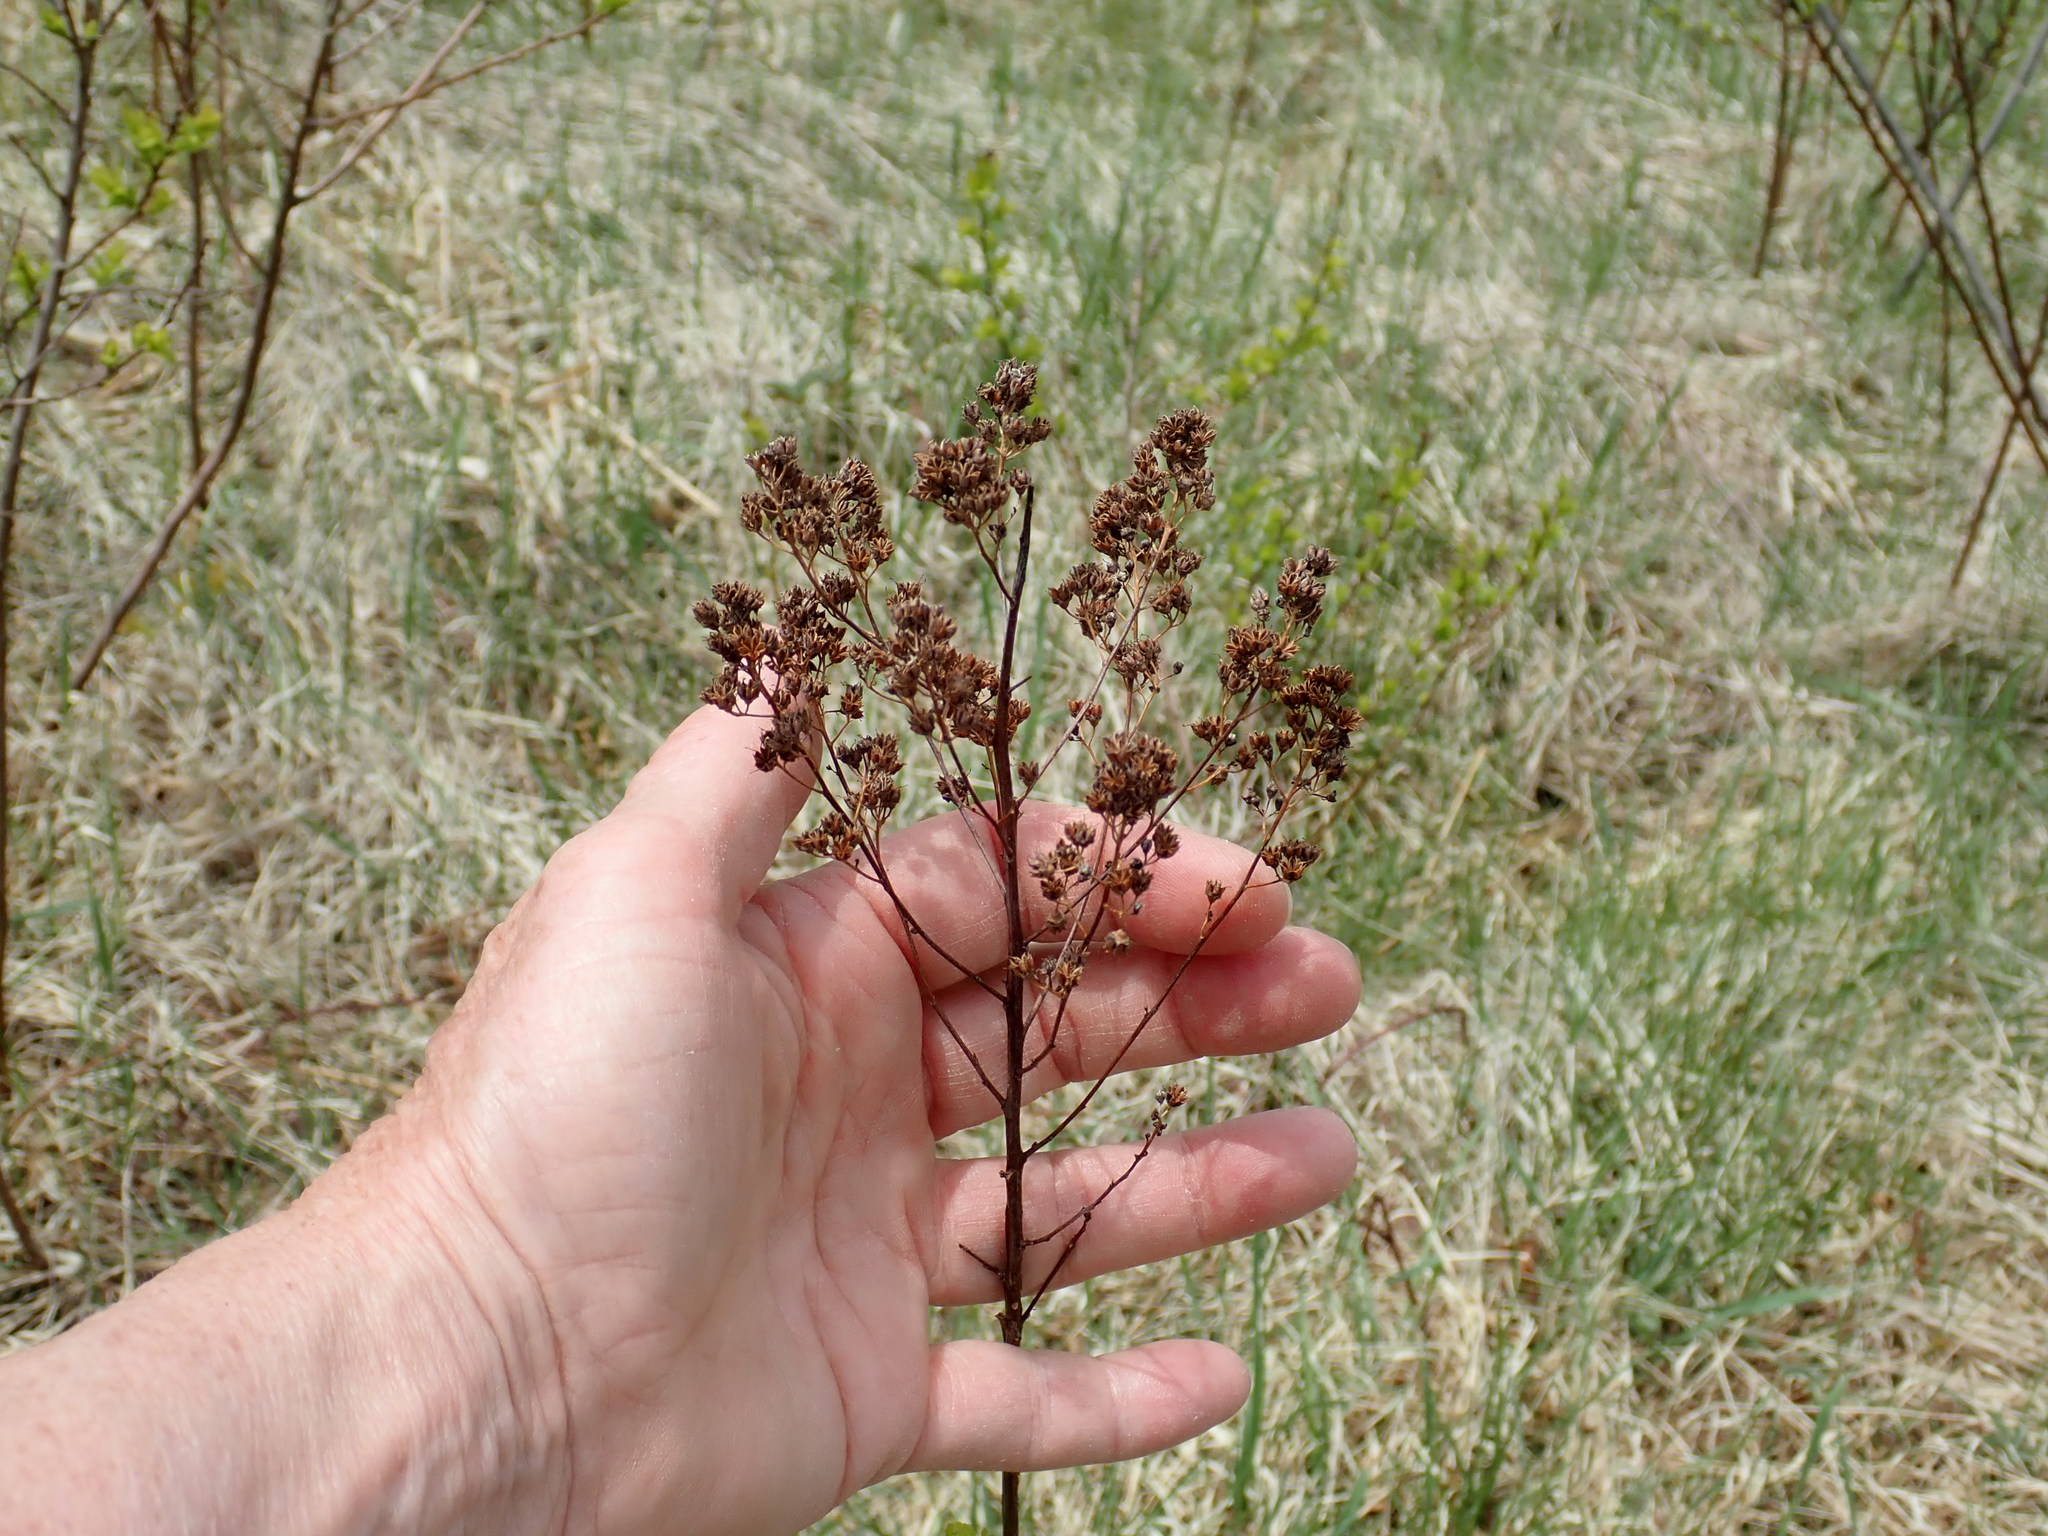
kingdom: Plantae
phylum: Tracheophyta
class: Magnoliopsida
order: Rosales
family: Rosaceae
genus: Spiraea
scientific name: Spiraea alba
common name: Pale bridewort
